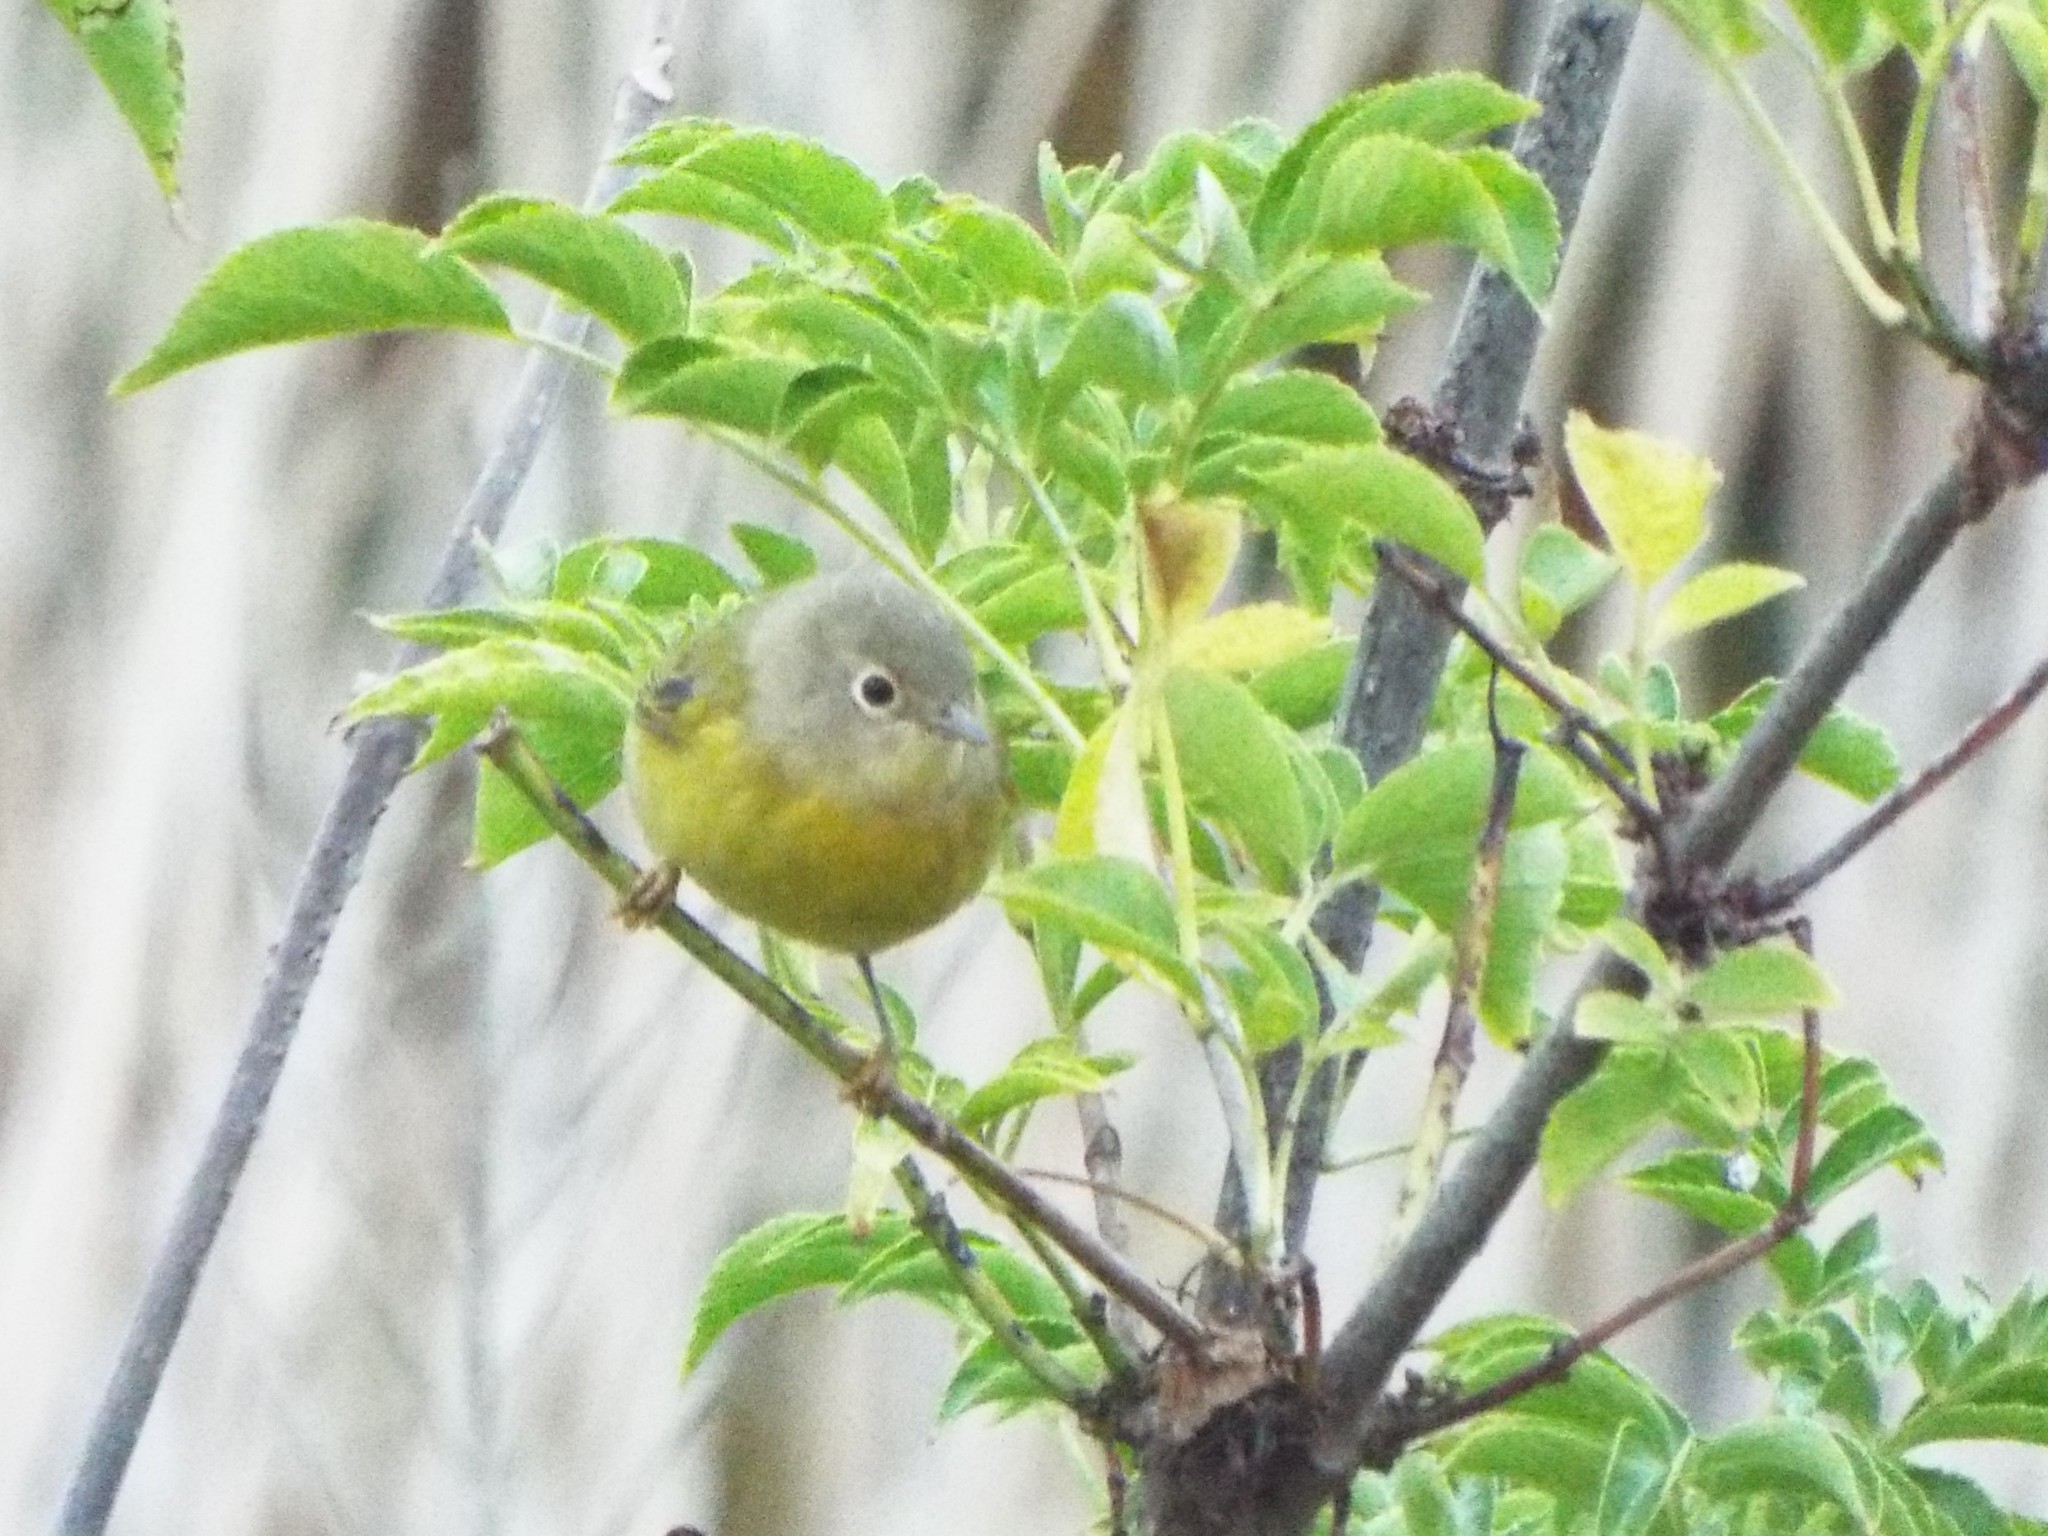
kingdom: Animalia
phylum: Chordata
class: Aves
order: Passeriformes
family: Parulidae
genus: Leiothlypis
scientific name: Leiothlypis ruficapilla
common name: Nashville warbler
